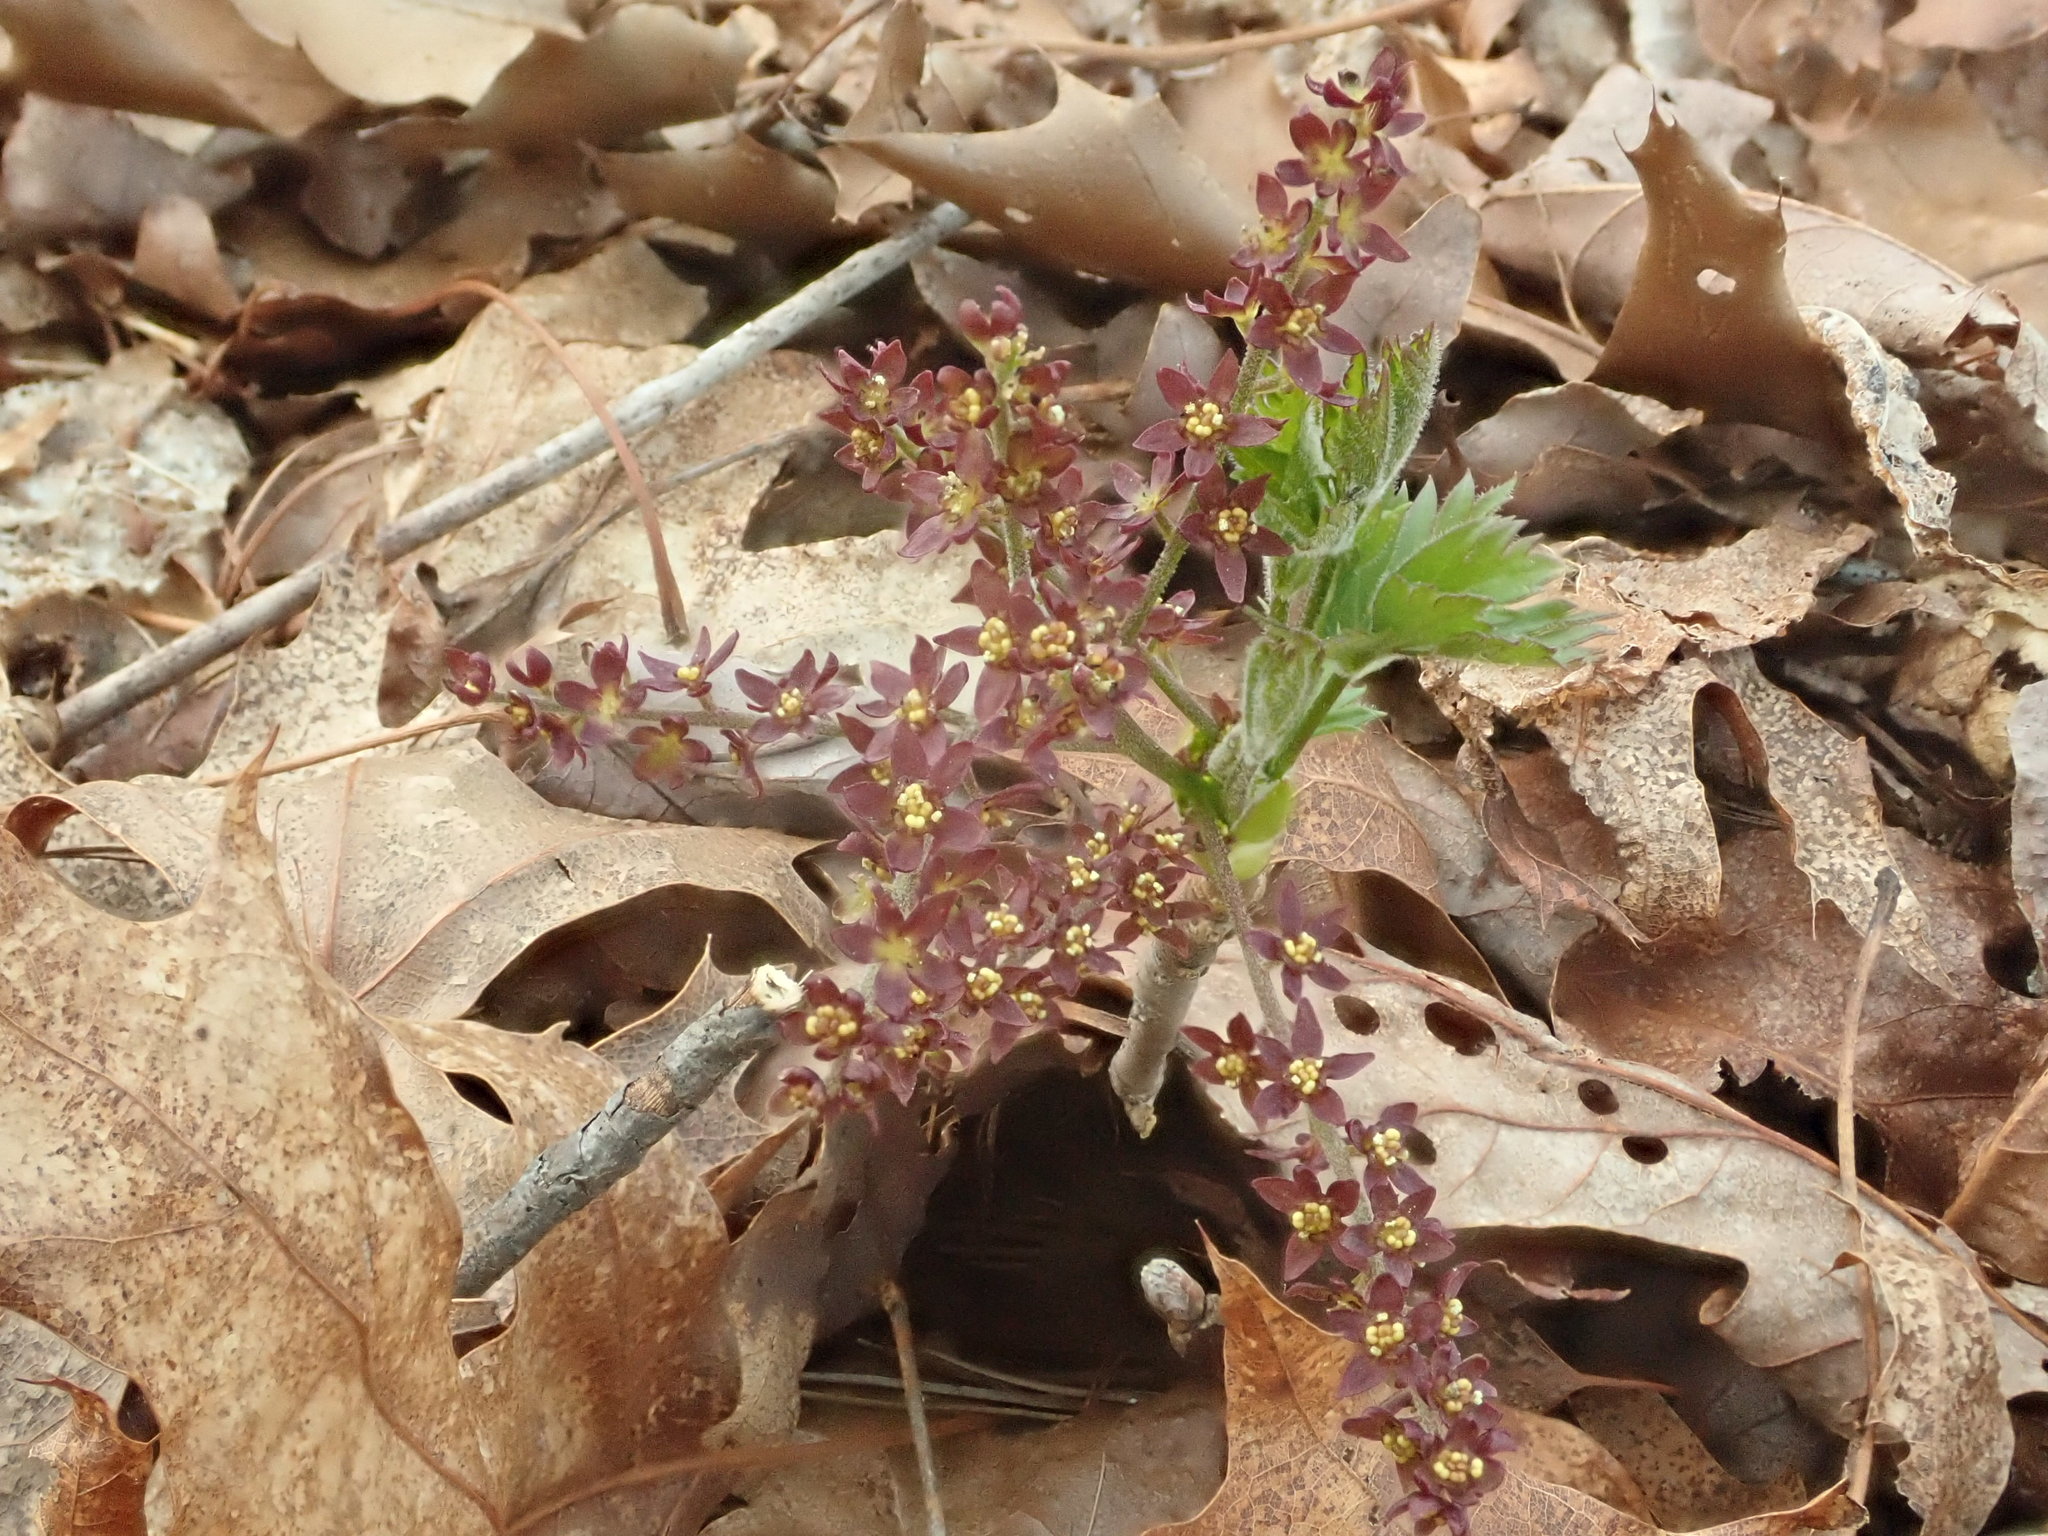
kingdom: Plantae
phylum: Tracheophyta
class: Magnoliopsida
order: Ranunculales
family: Ranunculaceae
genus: Xanthorhiza
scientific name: Xanthorhiza simplicissima
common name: Yellowroot
